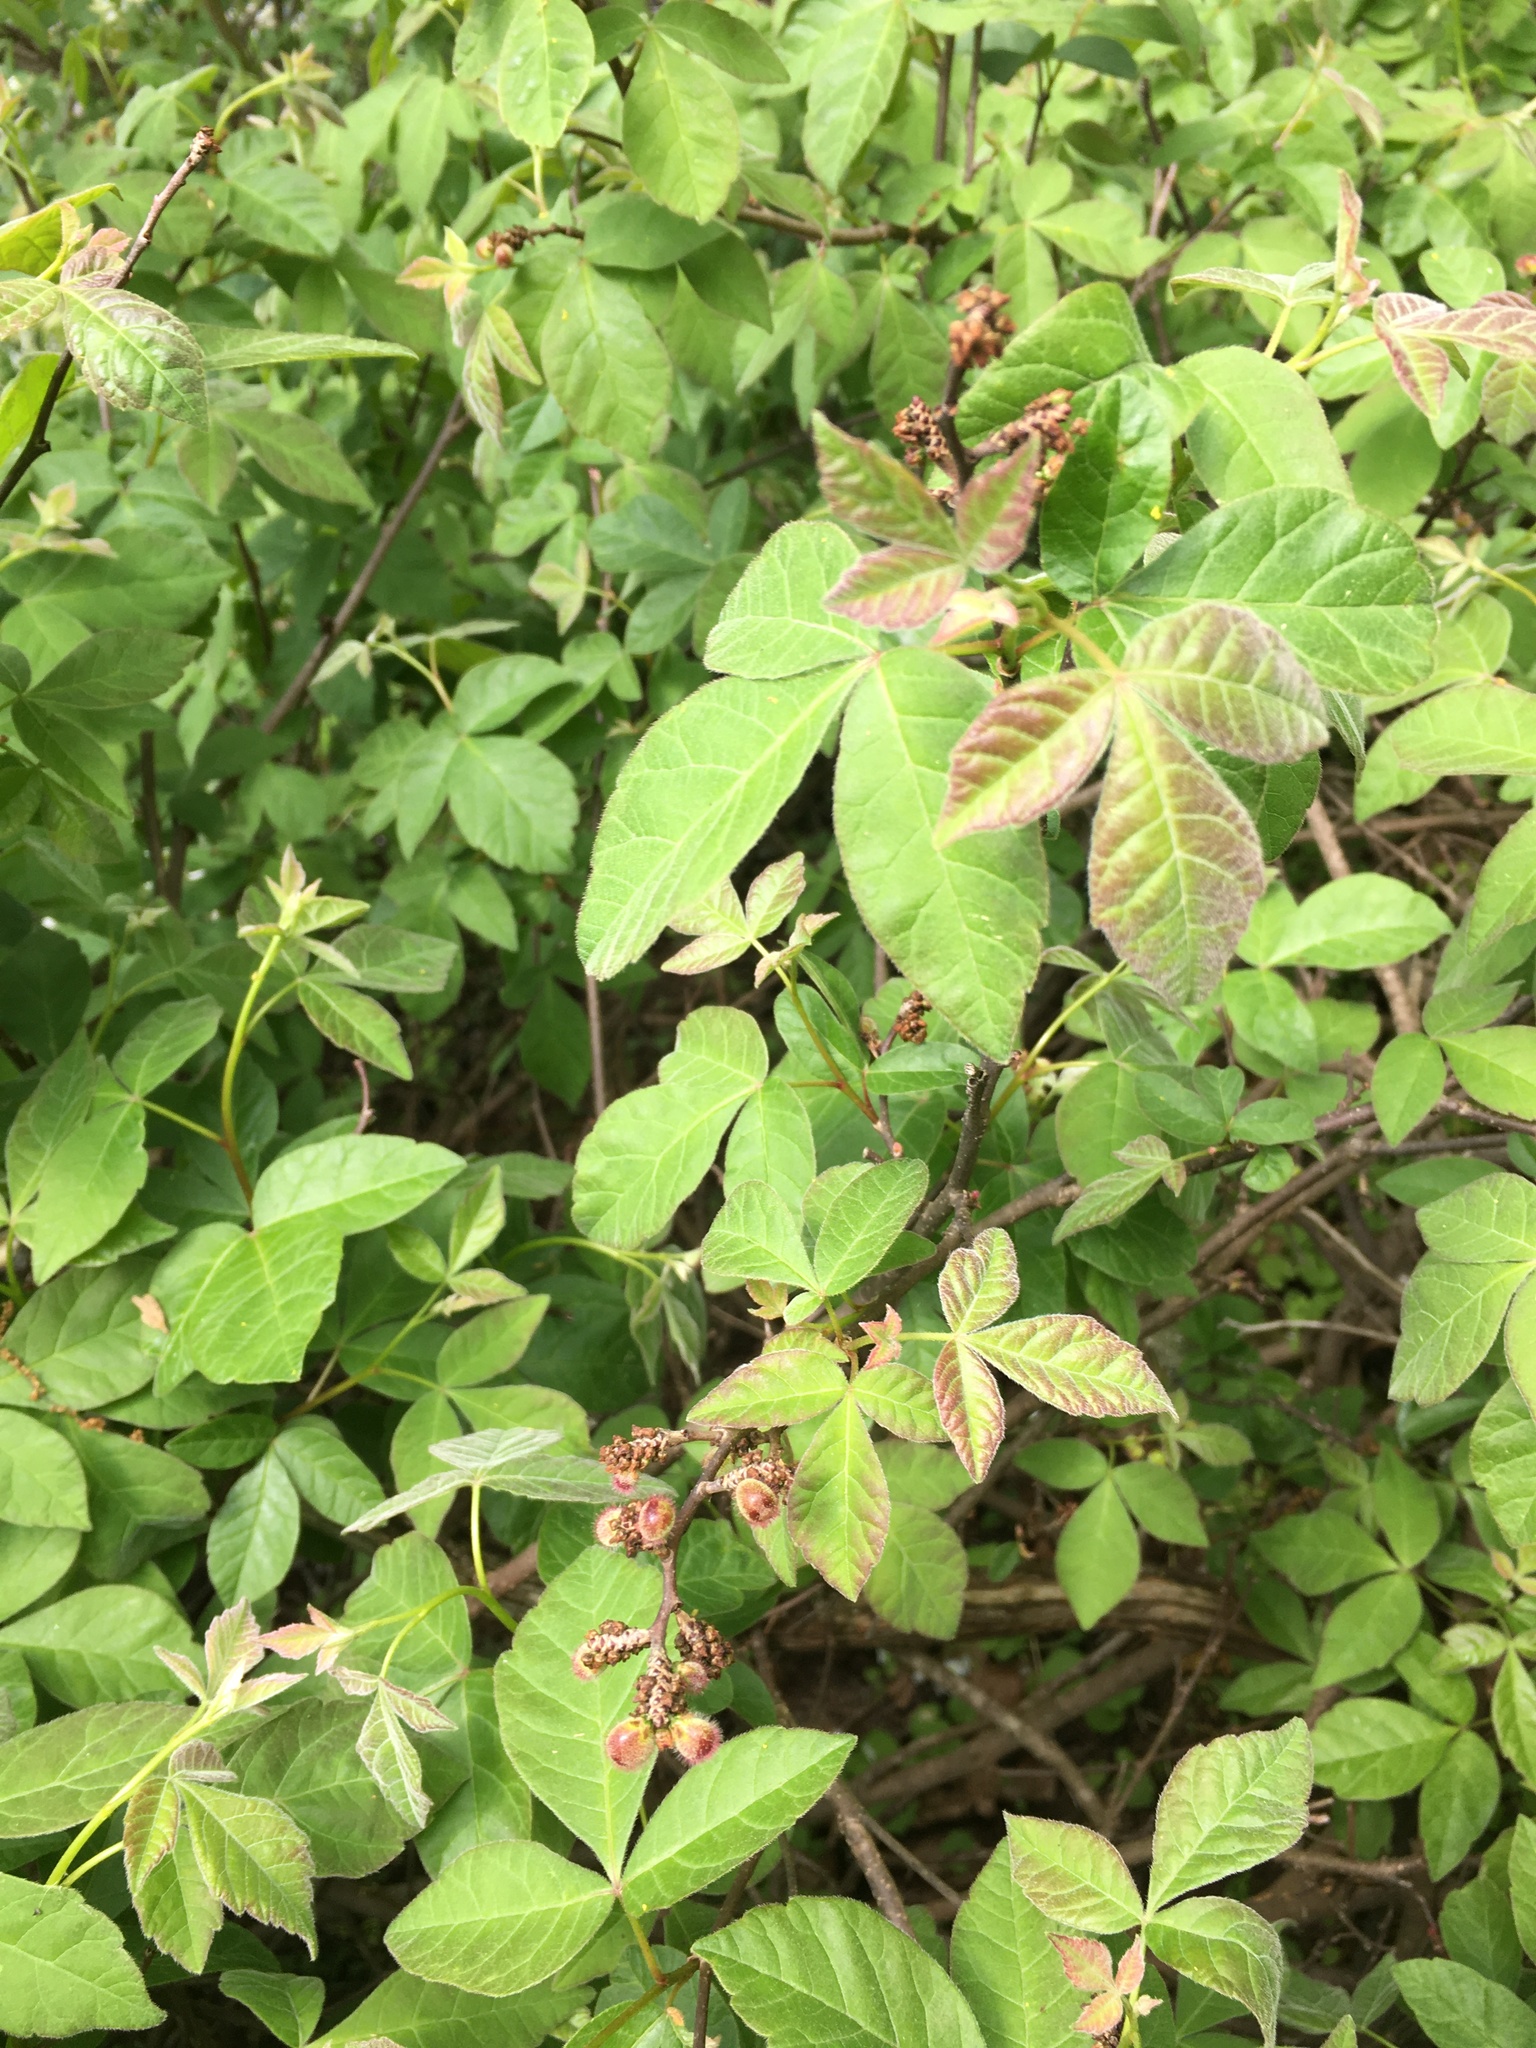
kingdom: Plantae
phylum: Tracheophyta
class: Magnoliopsida
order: Sapindales
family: Anacardiaceae
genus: Rhus
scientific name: Rhus aromatica
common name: Aromatic sumac
